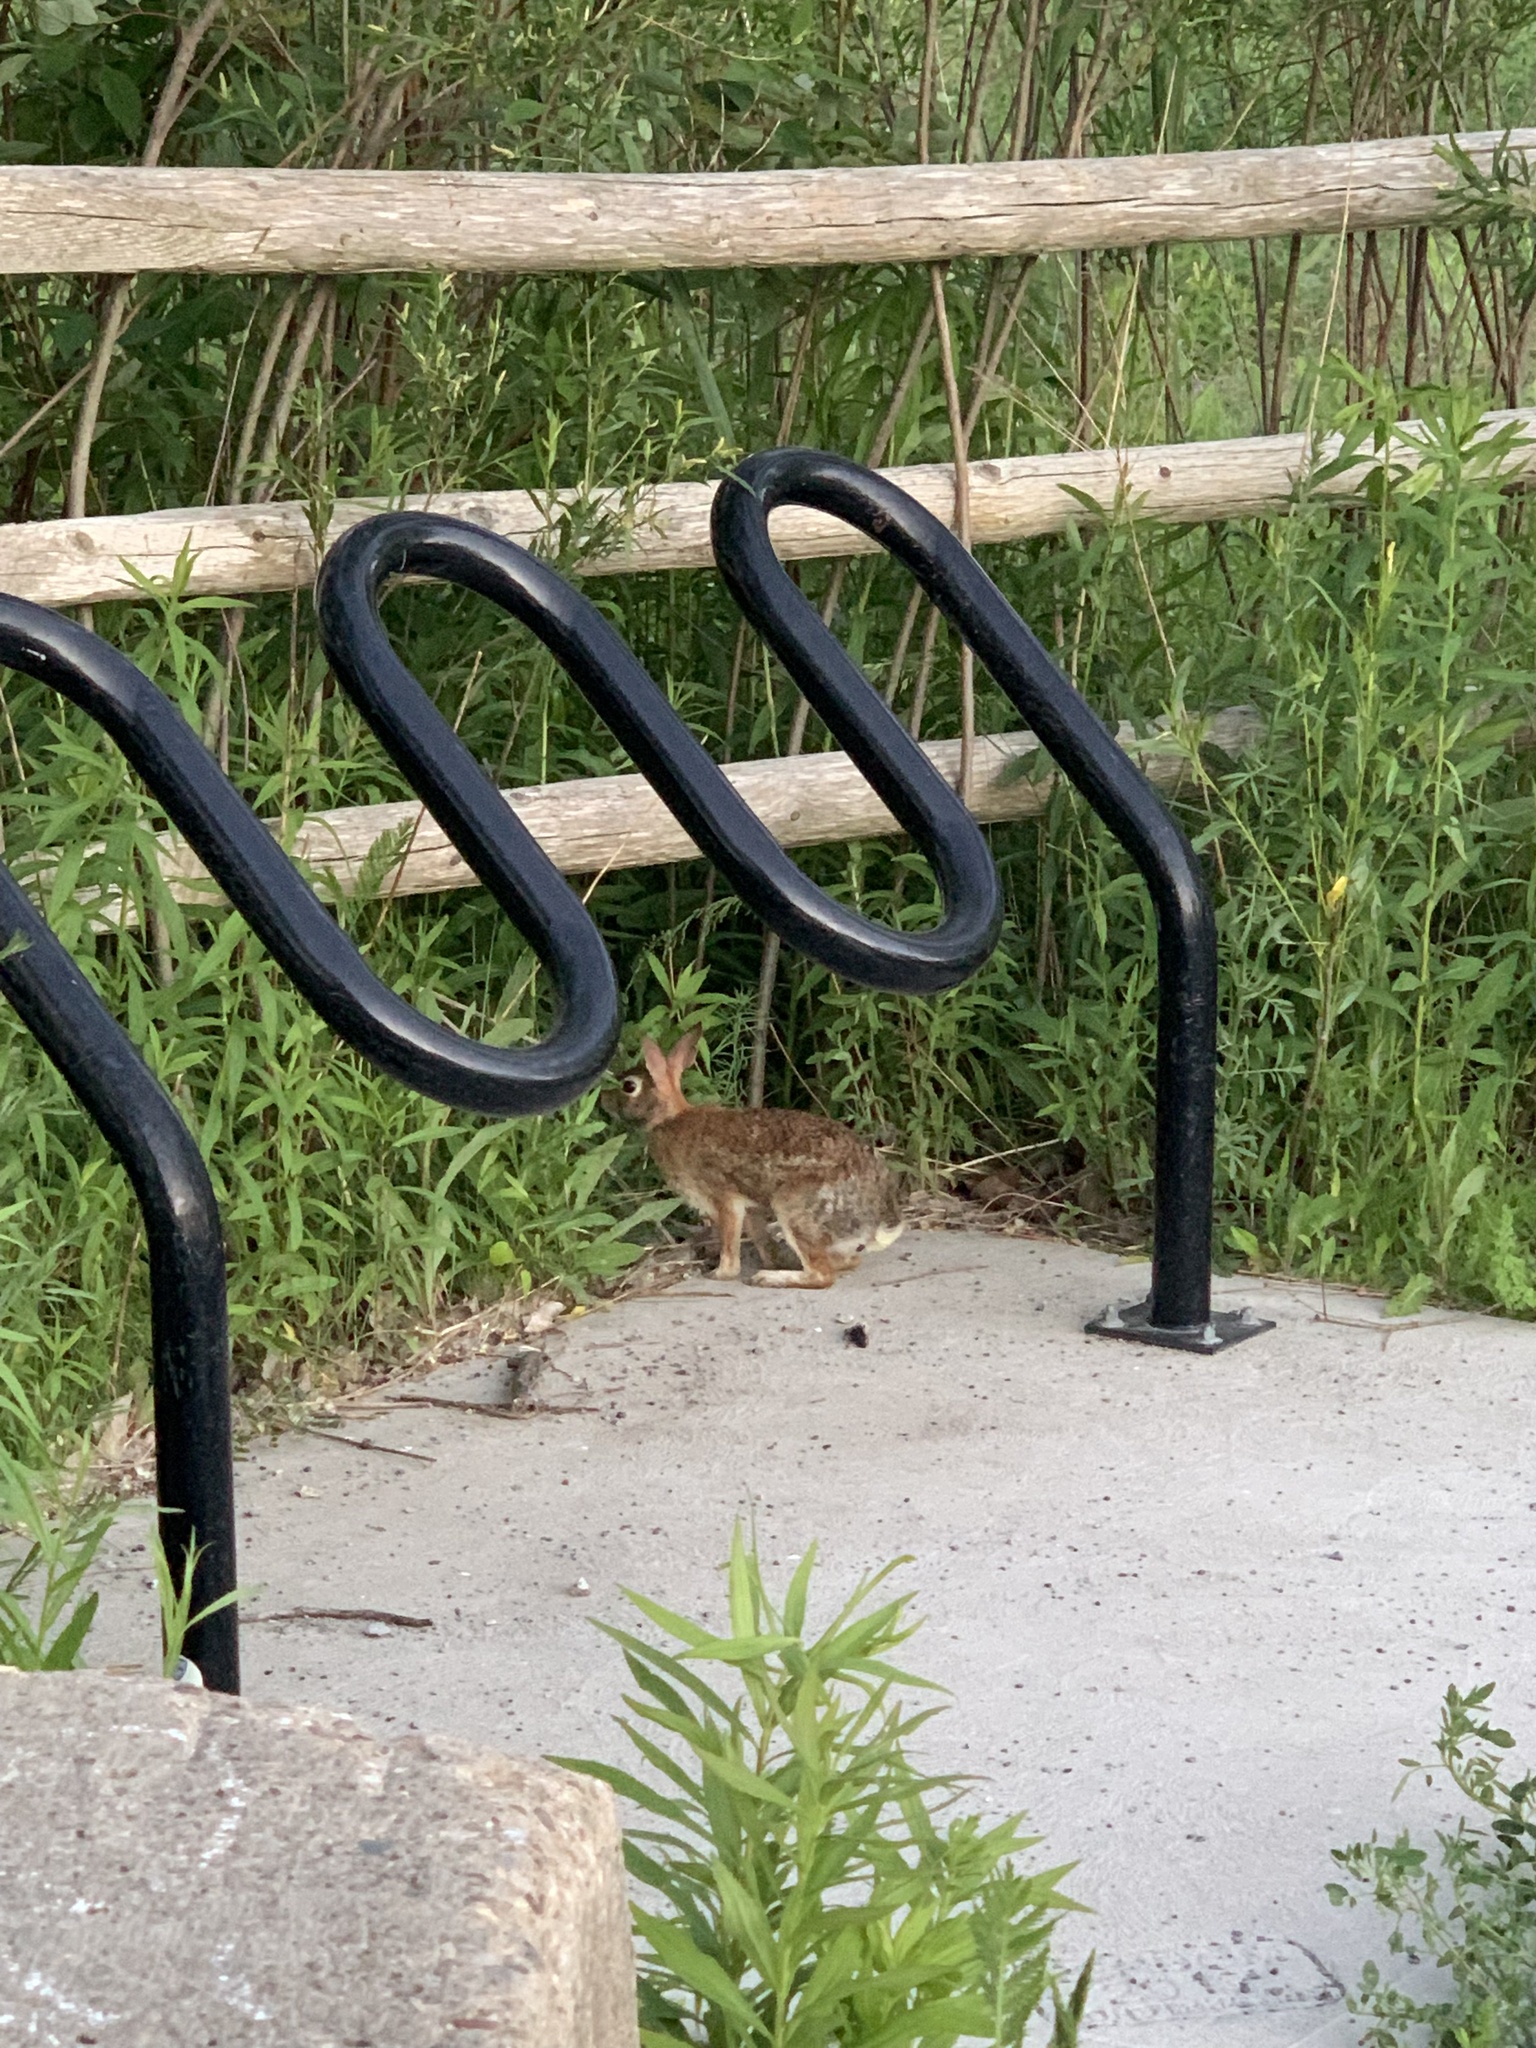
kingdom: Animalia
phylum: Chordata
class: Mammalia
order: Lagomorpha
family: Leporidae
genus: Sylvilagus
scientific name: Sylvilagus floridanus
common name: Eastern cottontail
